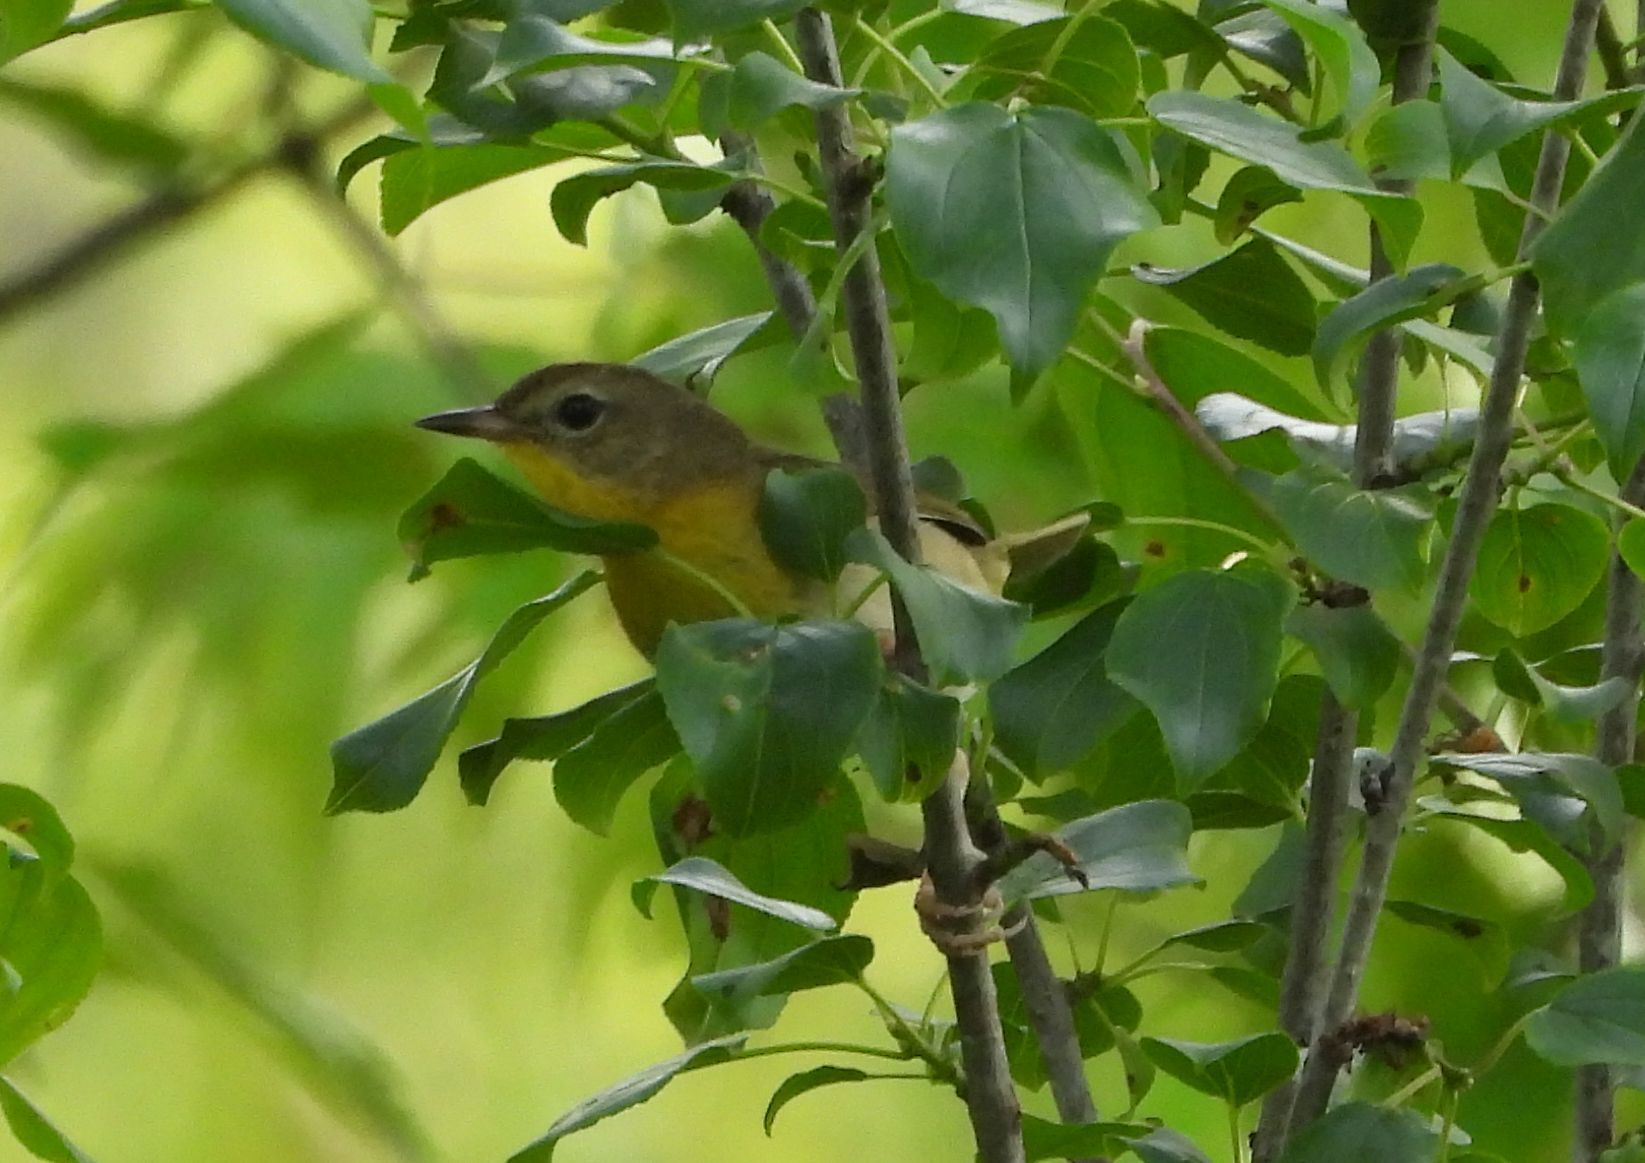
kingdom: Animalia
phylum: Chordata
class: Aves
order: Passeriformes
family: Parulidae
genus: Setophaga
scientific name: Setophaga ruticilla
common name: American redstart
